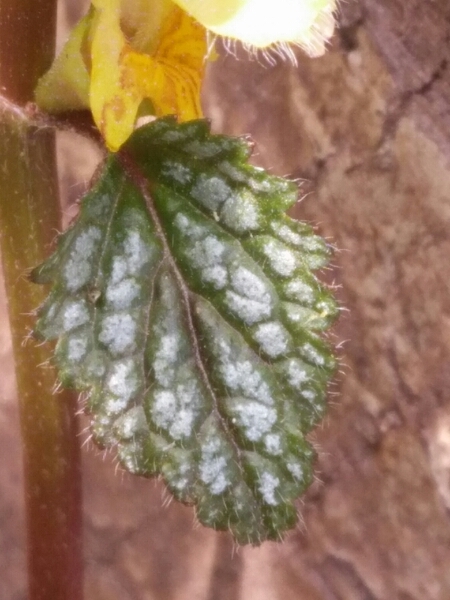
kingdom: Plantae
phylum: Tracheophyta
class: Magnoliopsida
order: Lamiales
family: Lamiaceae
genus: Lamium
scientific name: Lamium galeobdolon
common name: Yellow archangel
